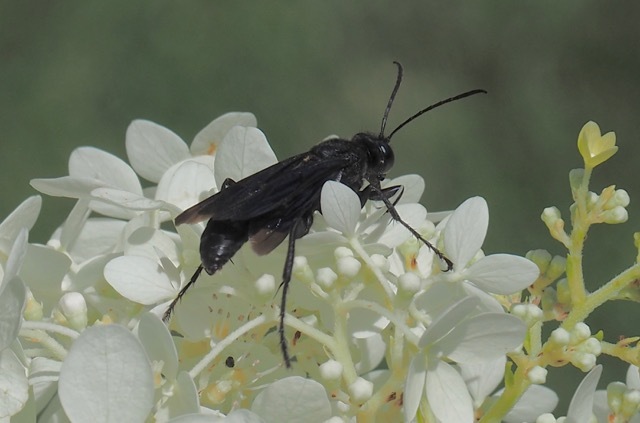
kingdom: Animalia
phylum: Arthropoda
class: Insecta
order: Hymenoptera
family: Sphecidae
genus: Sphex
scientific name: Sphex pensylvanicus
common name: Great black digger wasp
